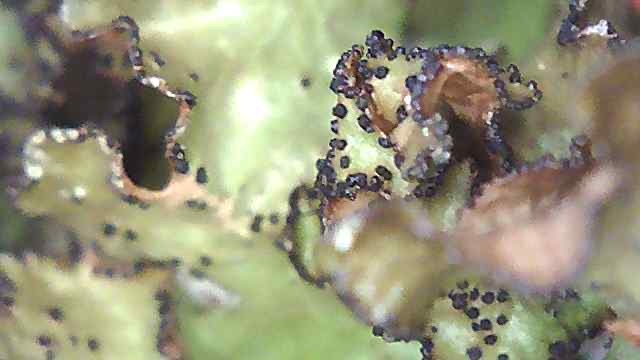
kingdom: Fungi
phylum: Ascomycota
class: Lecanoromycetes
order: Lecanorales
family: Parmeliaceae
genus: Nephromopsis
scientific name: Nephromopsis orbata
